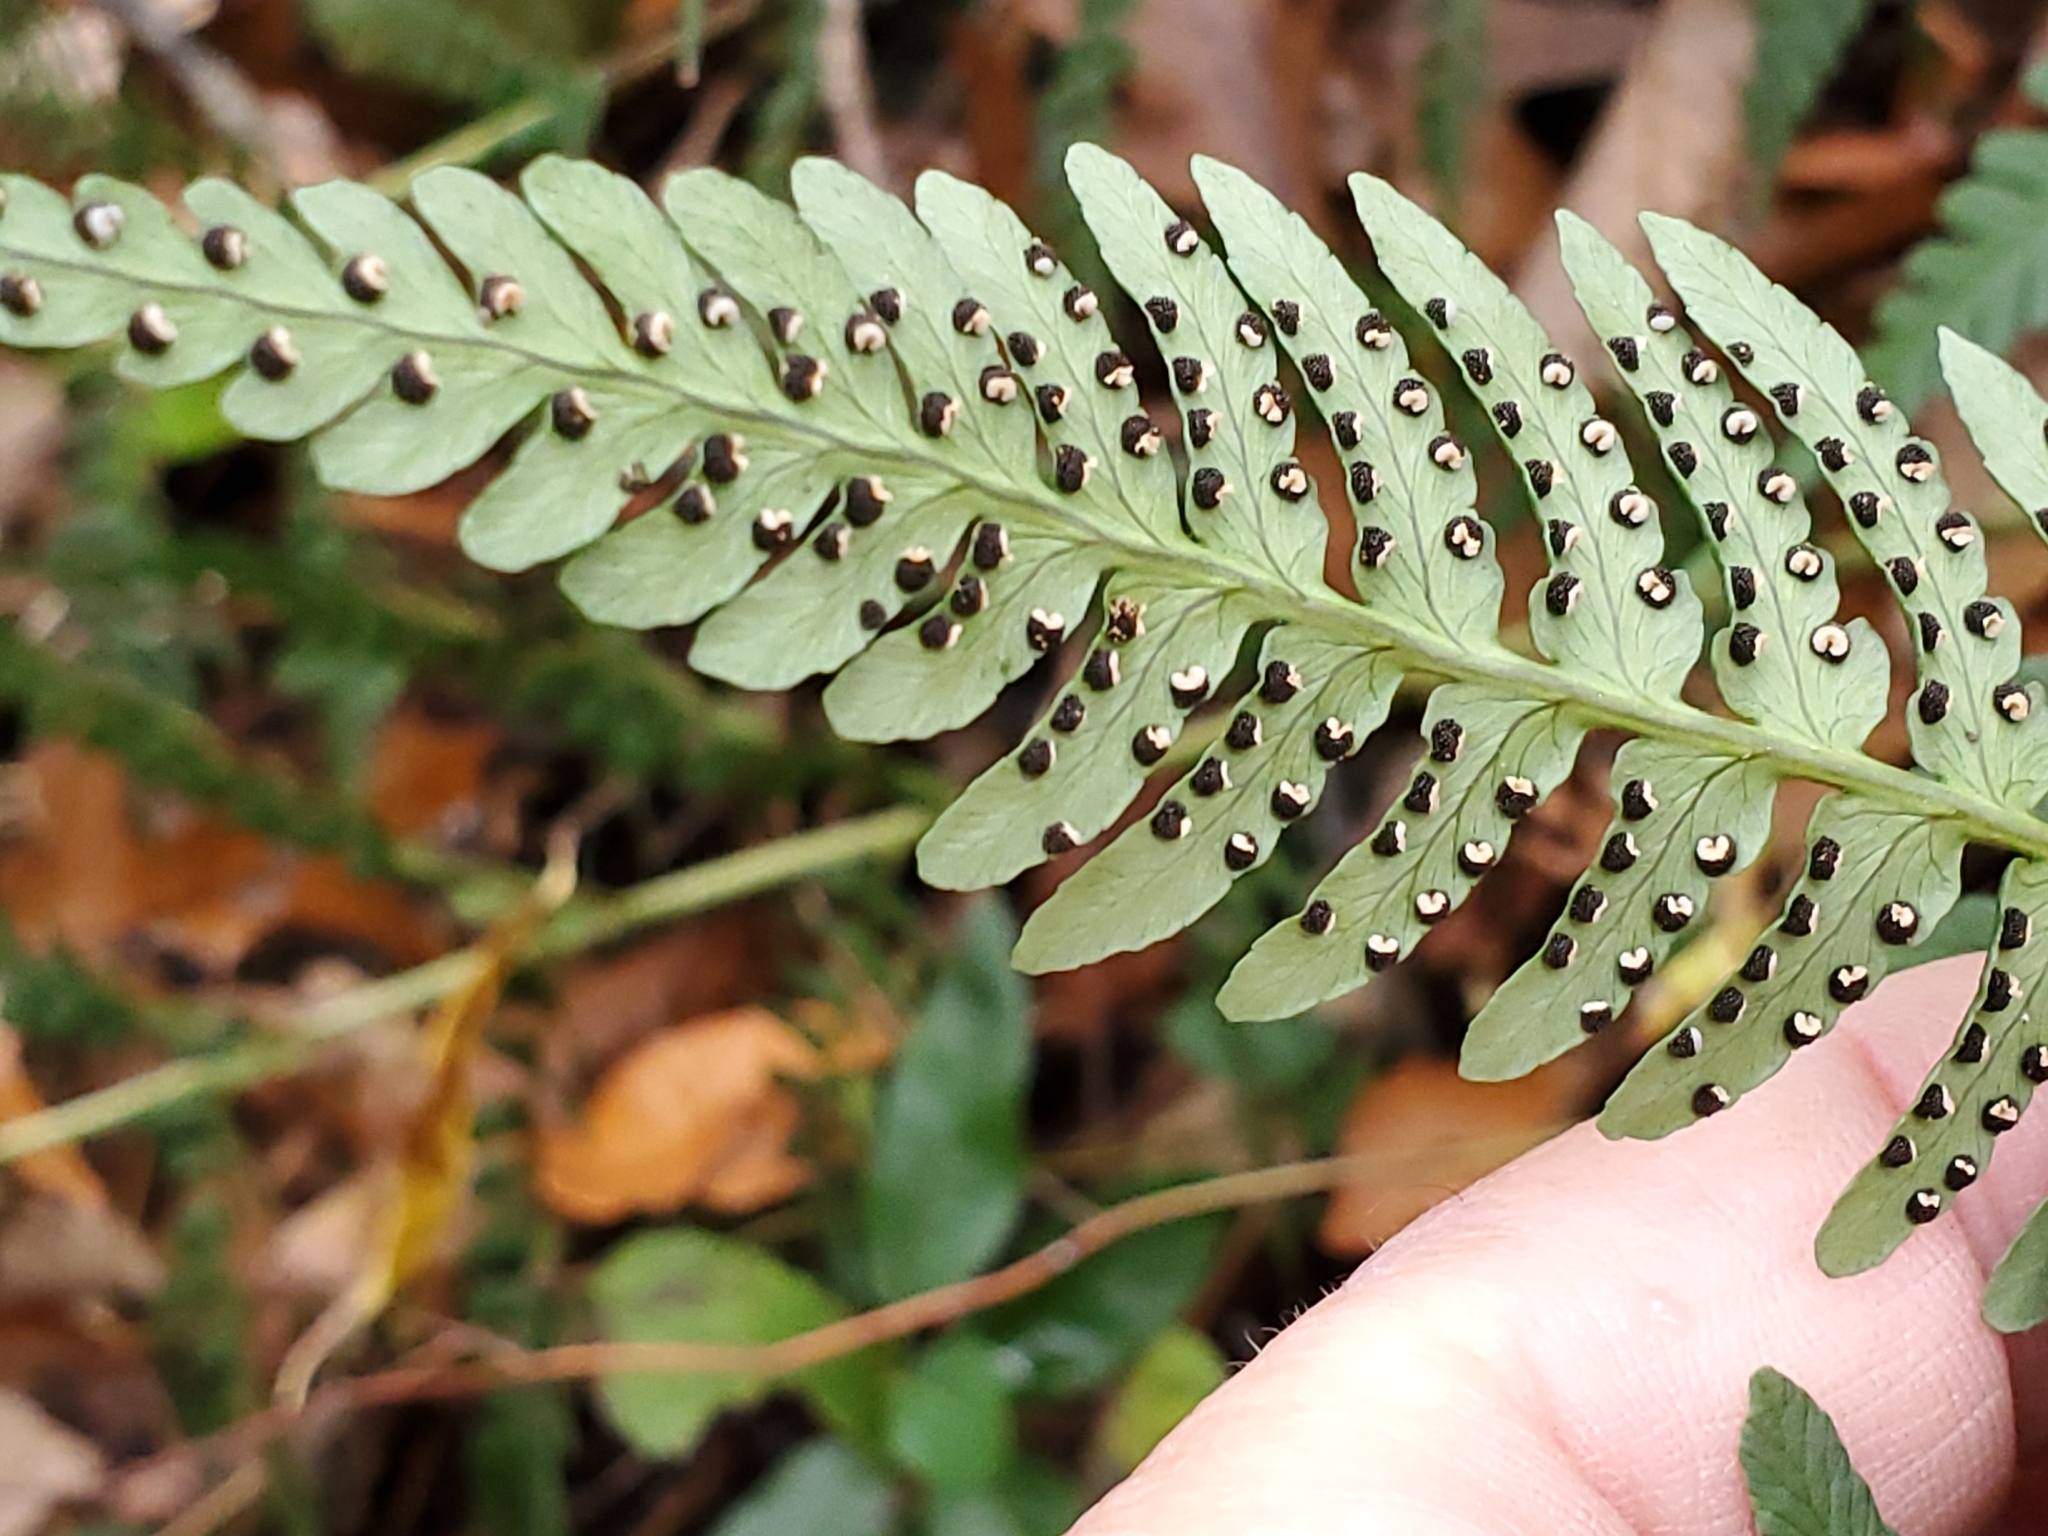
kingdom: Plantae
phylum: Tracheophyta
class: Polypodiopsida
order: Polypodiales
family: Dryopteridaceae
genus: Dryopteris
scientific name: Dryopteris marginalis
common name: Marginal wood fern
